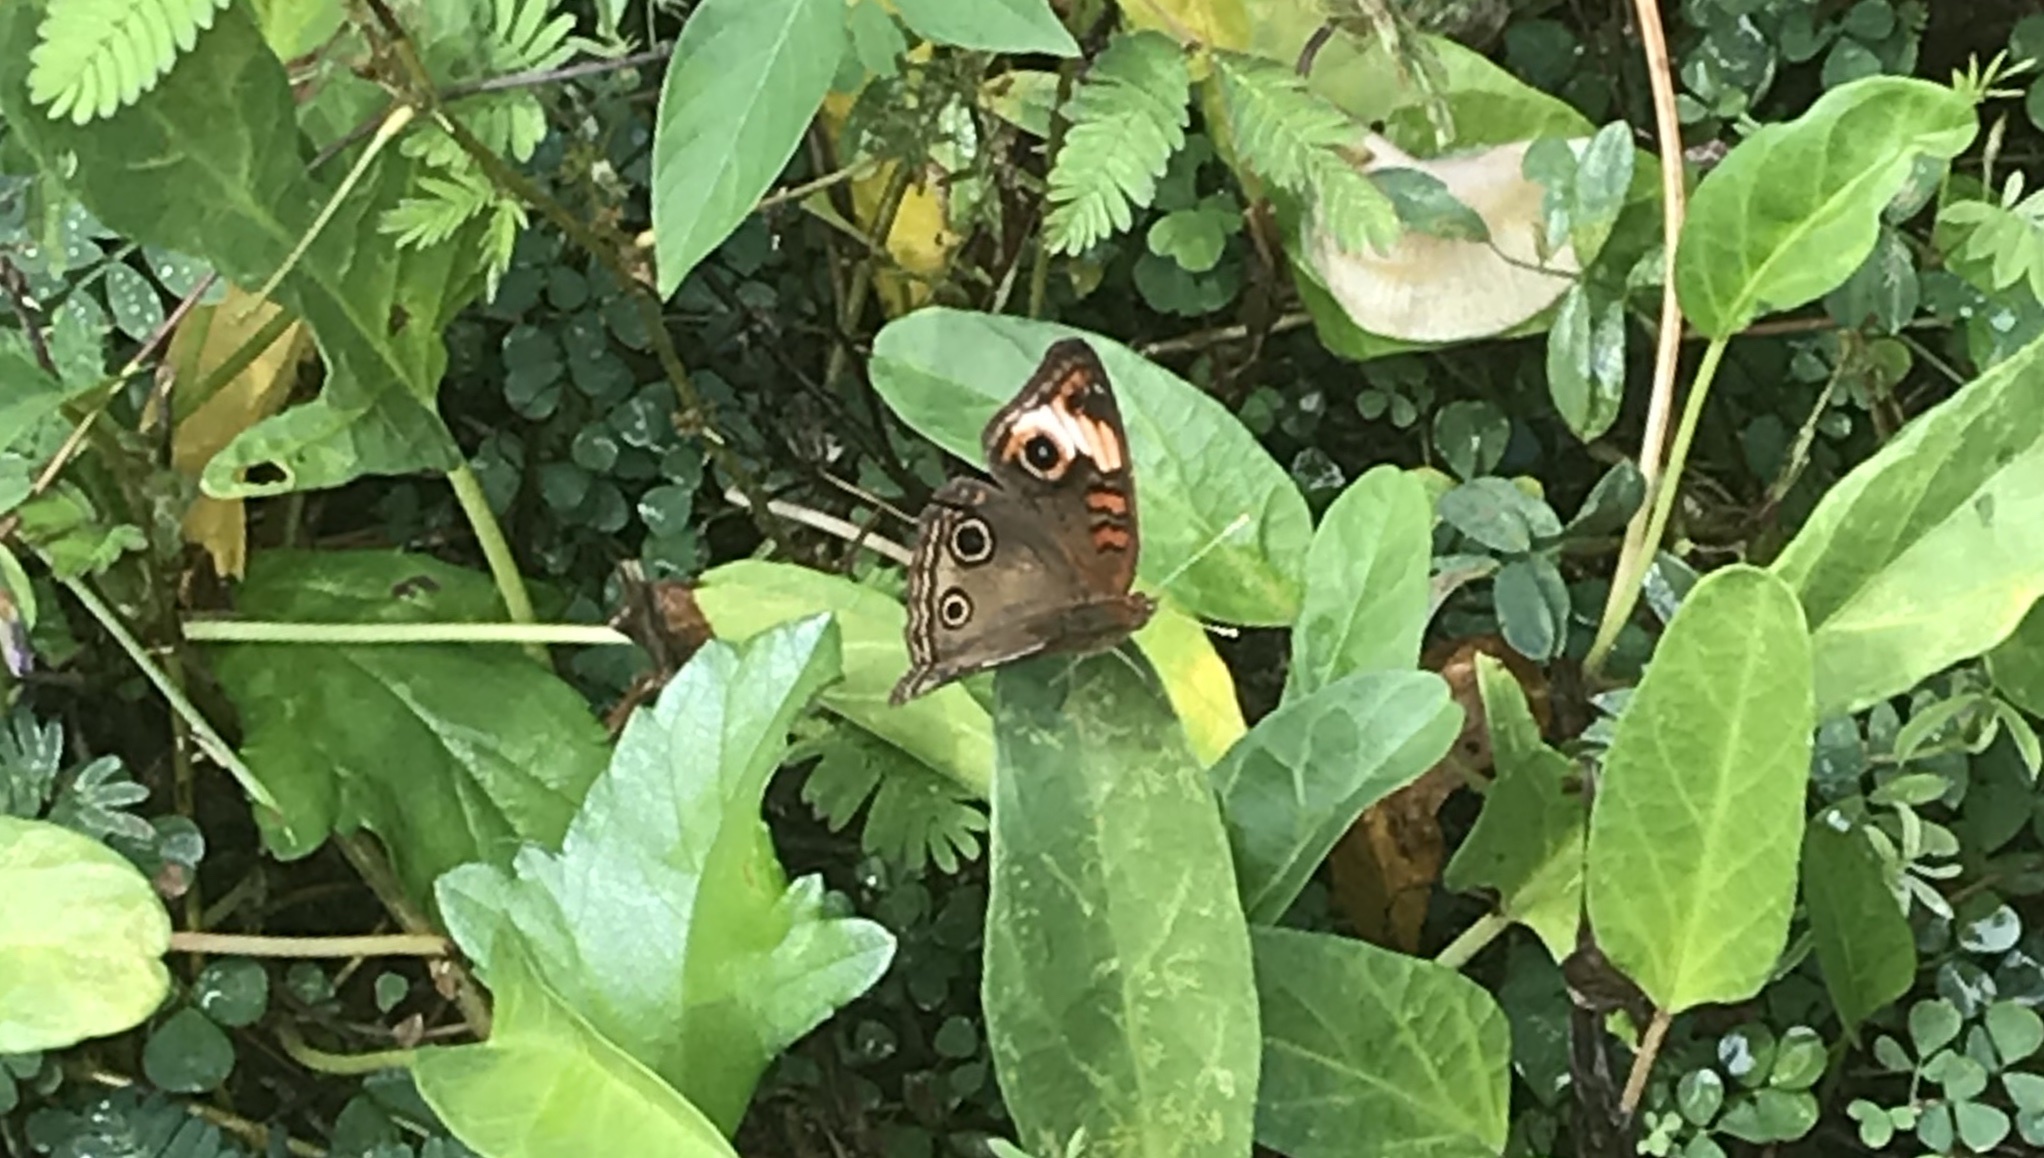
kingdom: Animalia
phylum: Arthropoda
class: Insecta
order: Lepidoptera
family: Nymphalidae
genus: Junonia
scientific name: Junonia lavinia
